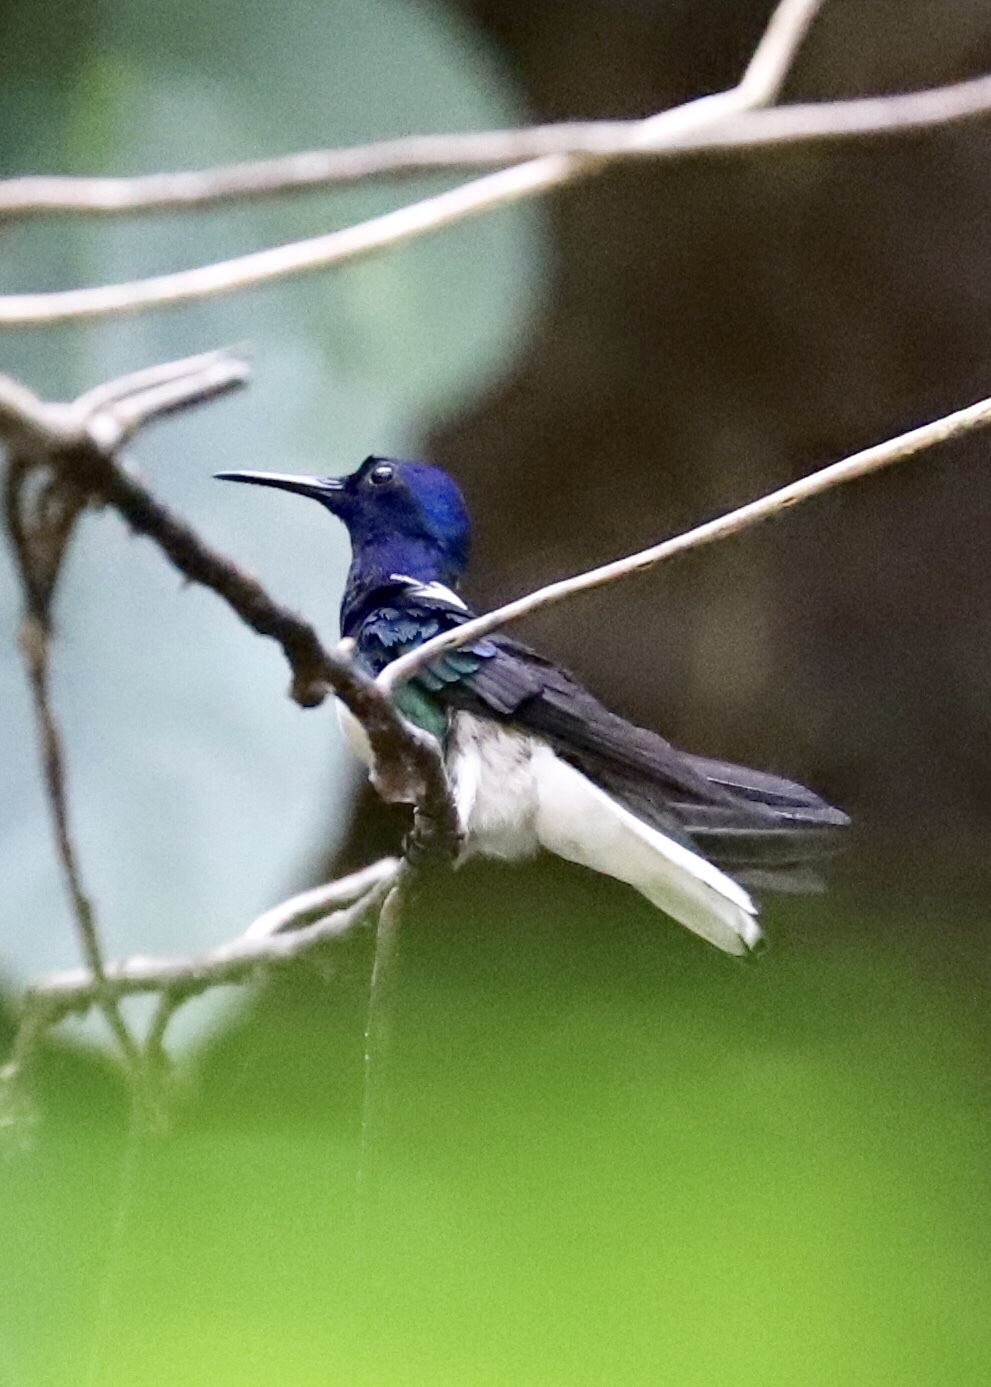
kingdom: Animalia
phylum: Chordata
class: Aves
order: Apodiformes
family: Trochilidae
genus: Florisuga
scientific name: Florisuga mellivora
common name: White-necked jacobin
